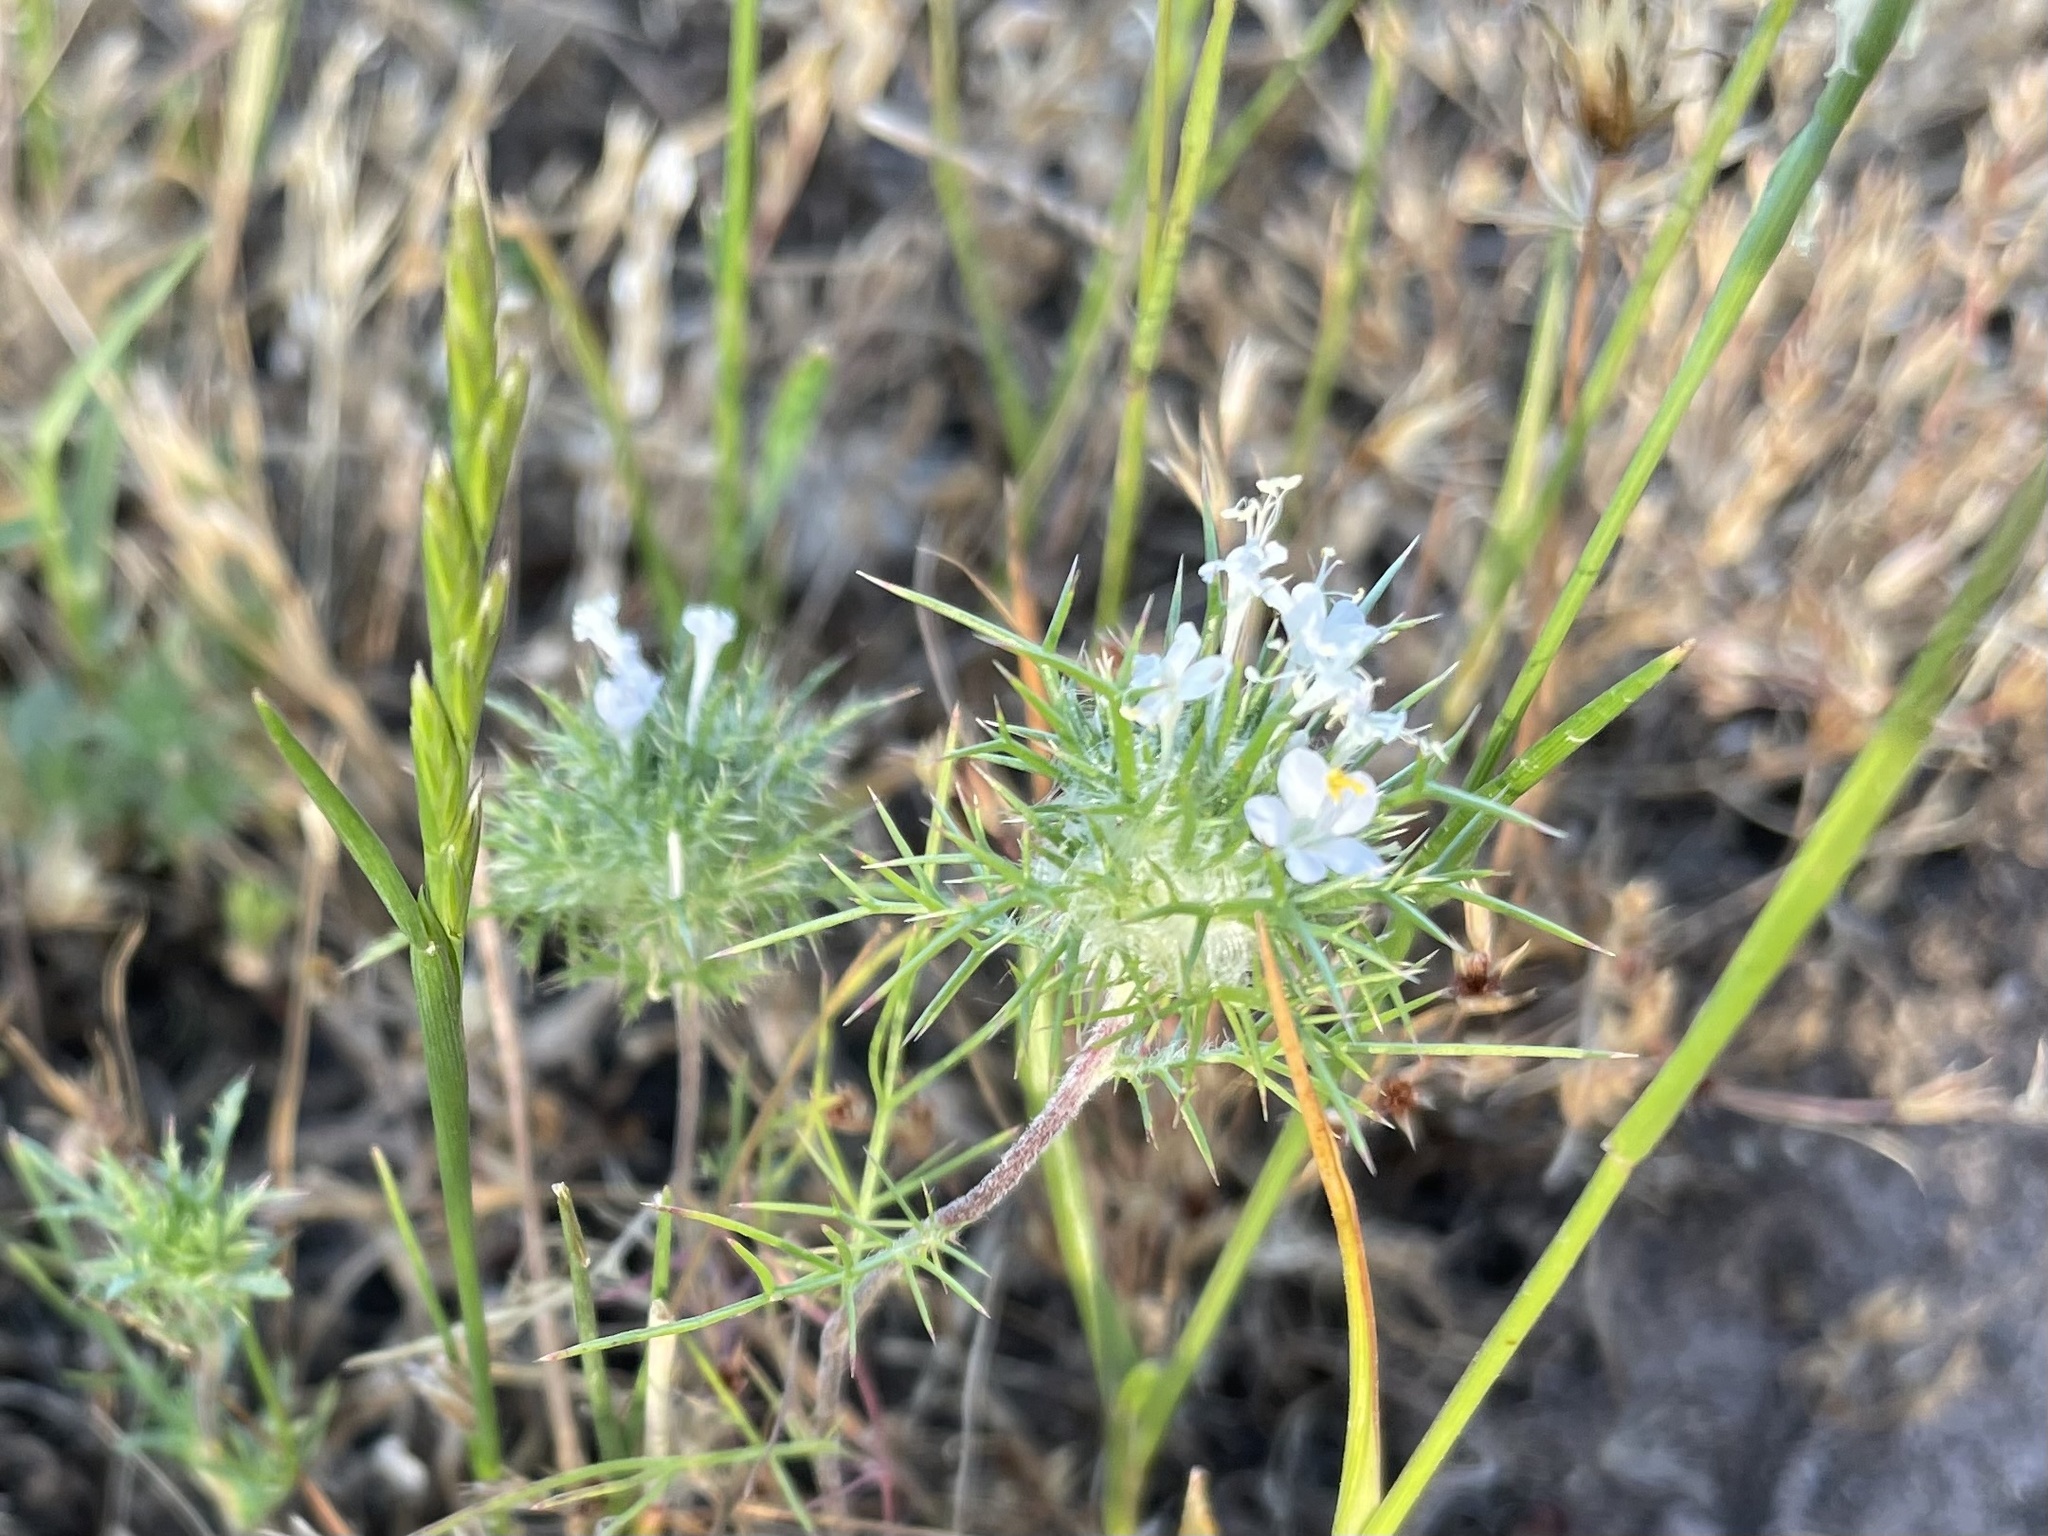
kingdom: Plantae
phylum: Tracheophyta
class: Magnoliopsida
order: Ericales
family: Polemoniaceae
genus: Navarretia
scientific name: Navarretia intertexta
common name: Needle-leaved navarretia
